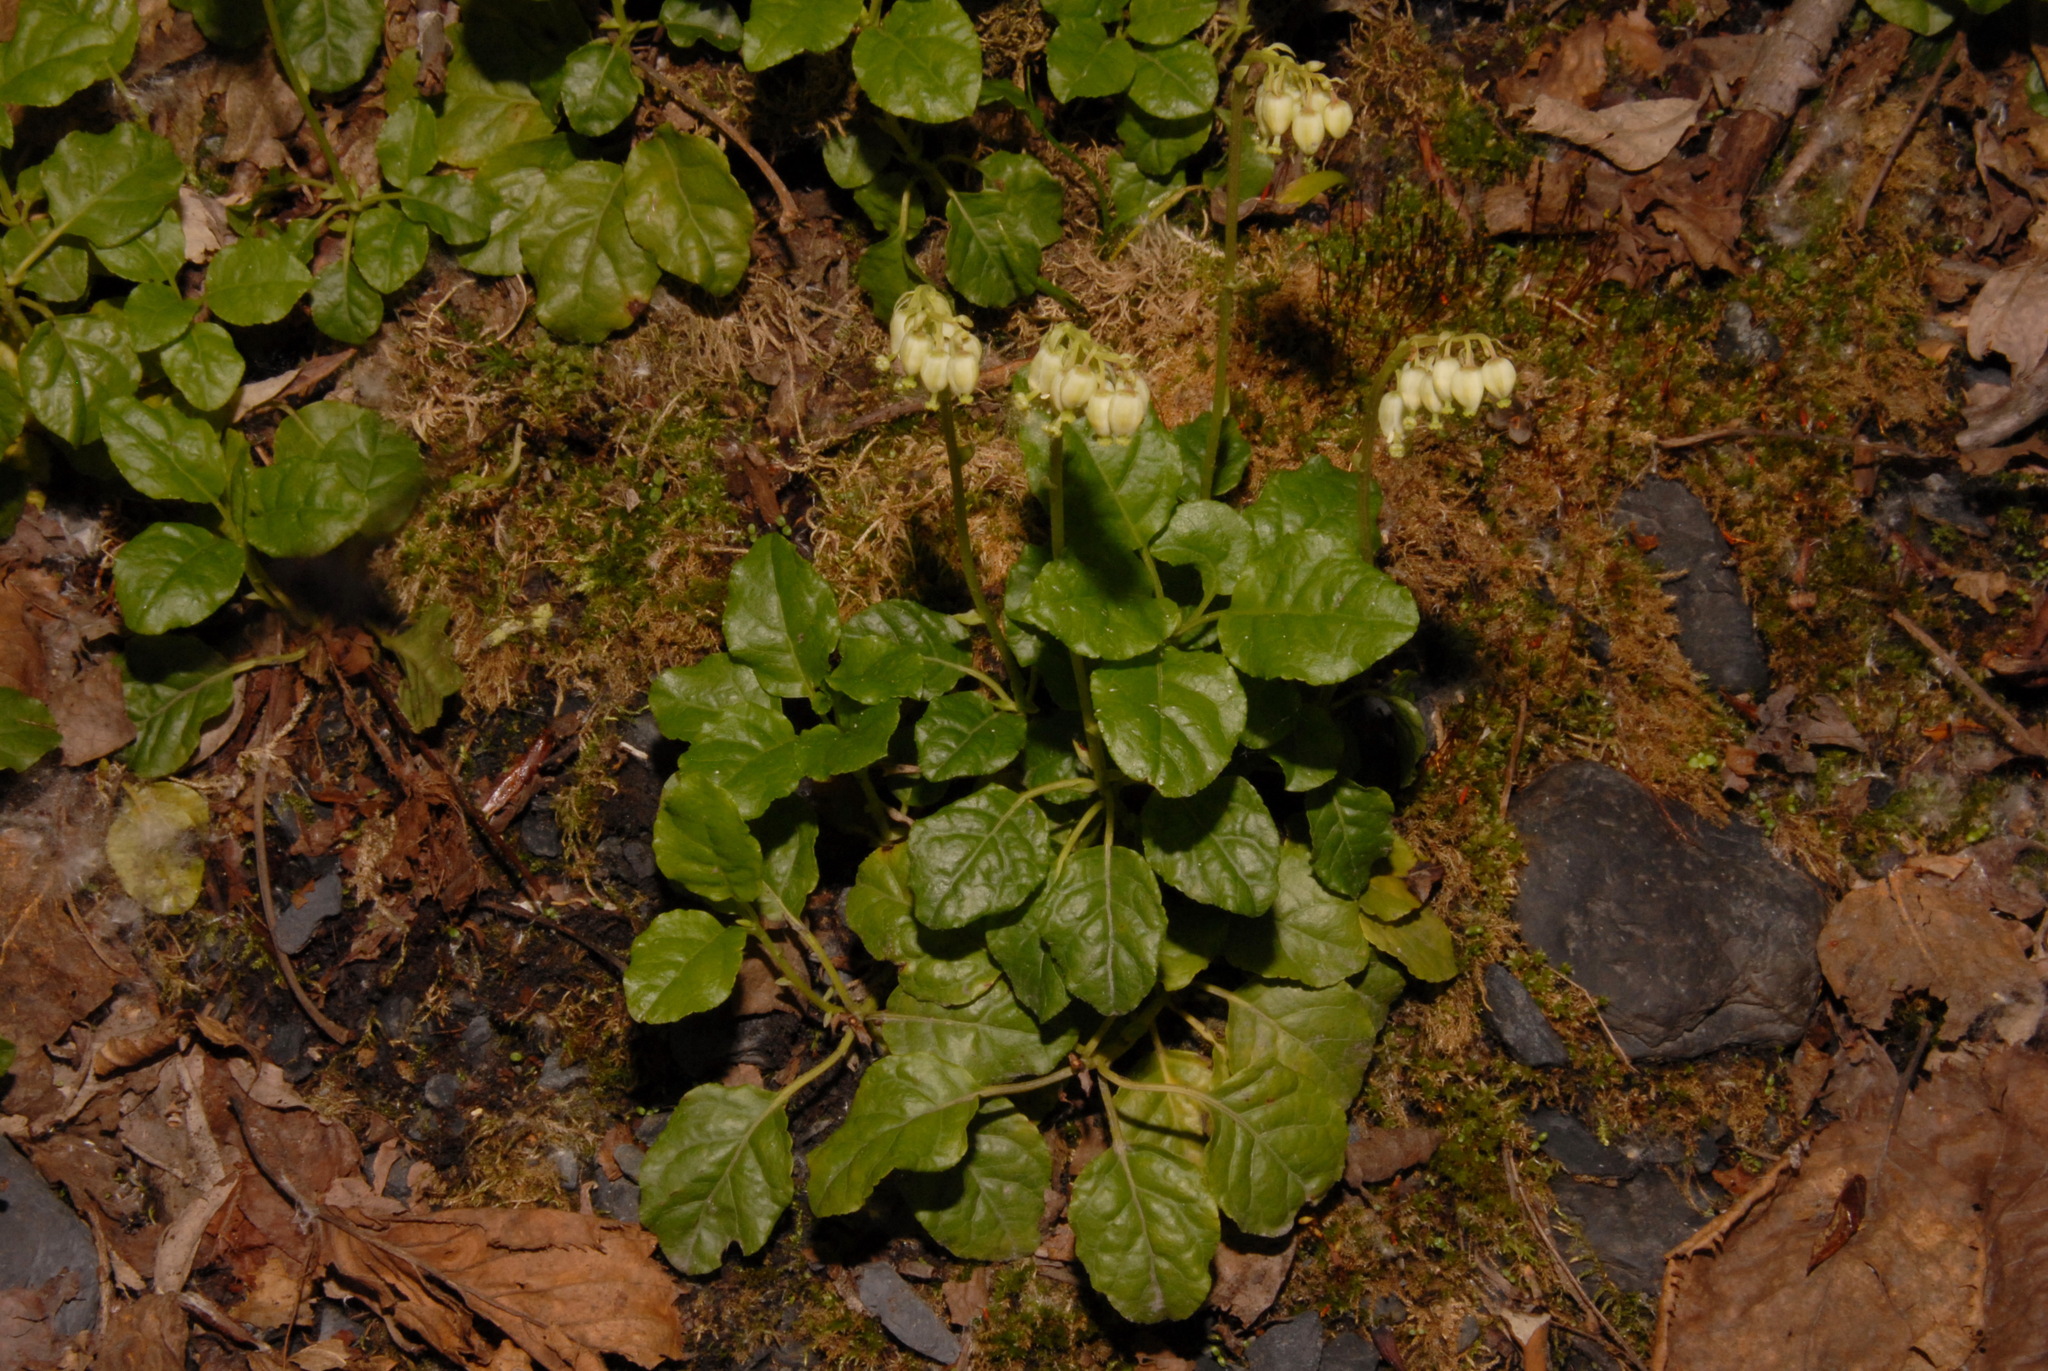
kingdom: Plantae
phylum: Tracheophyta
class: Magnoliopsida
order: Ericales
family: Ericaceae
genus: Orthilia
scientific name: Orthilia secunda
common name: One-sided orthilia
